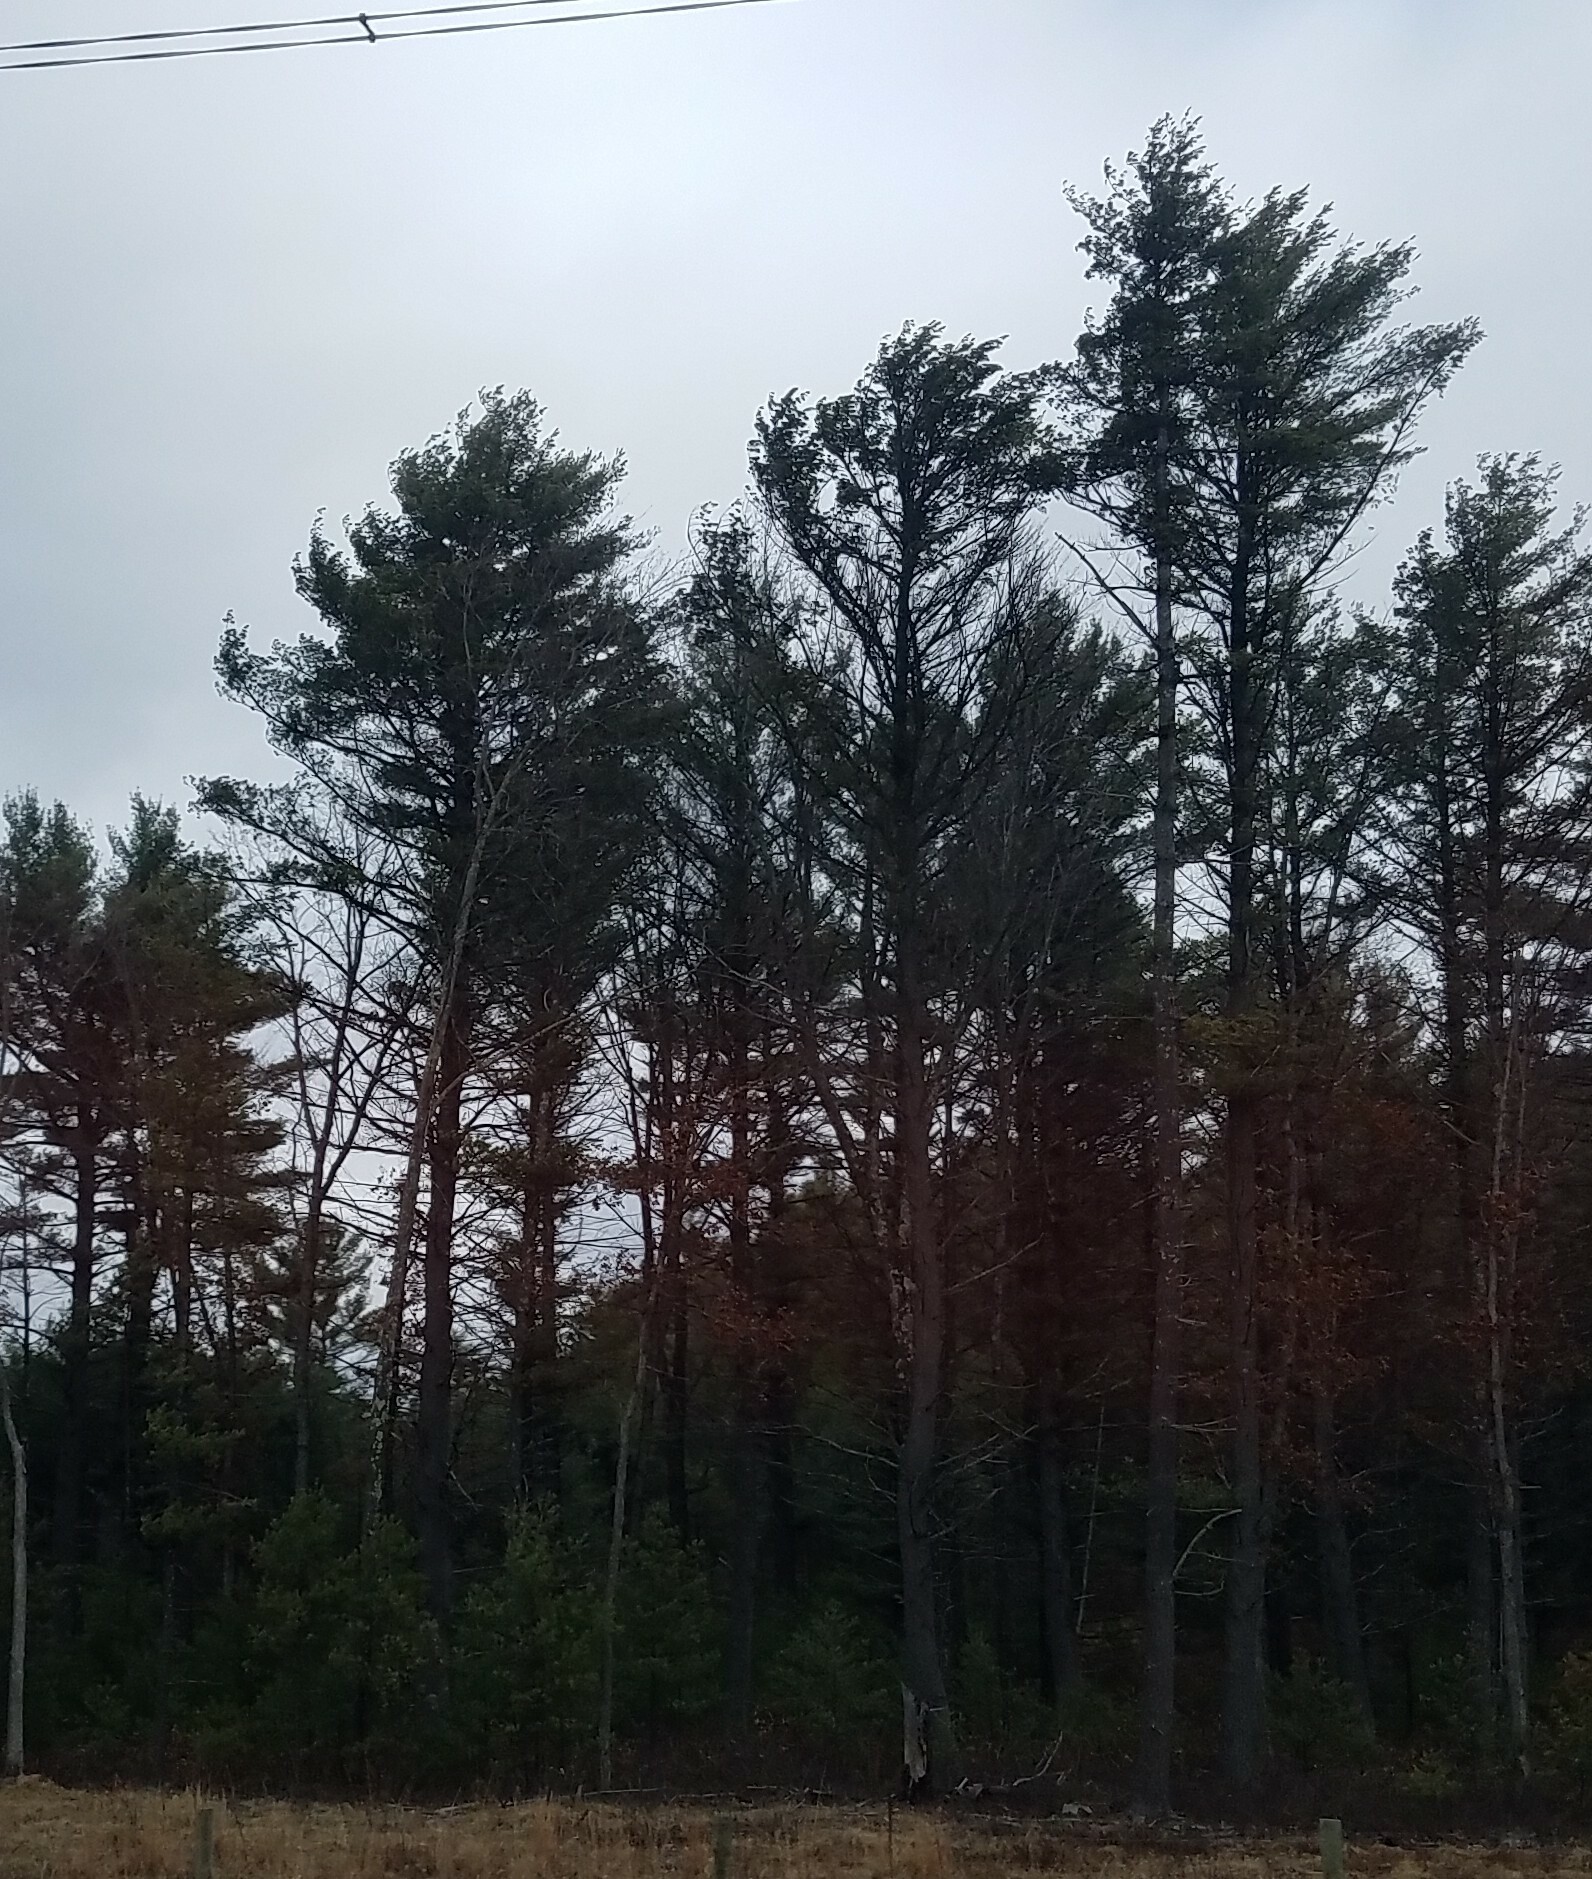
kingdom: Plantae
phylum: Tracheophyta
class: Pinopsida
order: Pinales
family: Pinaceae
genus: Pinus
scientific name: Pinus strobus
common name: Weymouth pine
